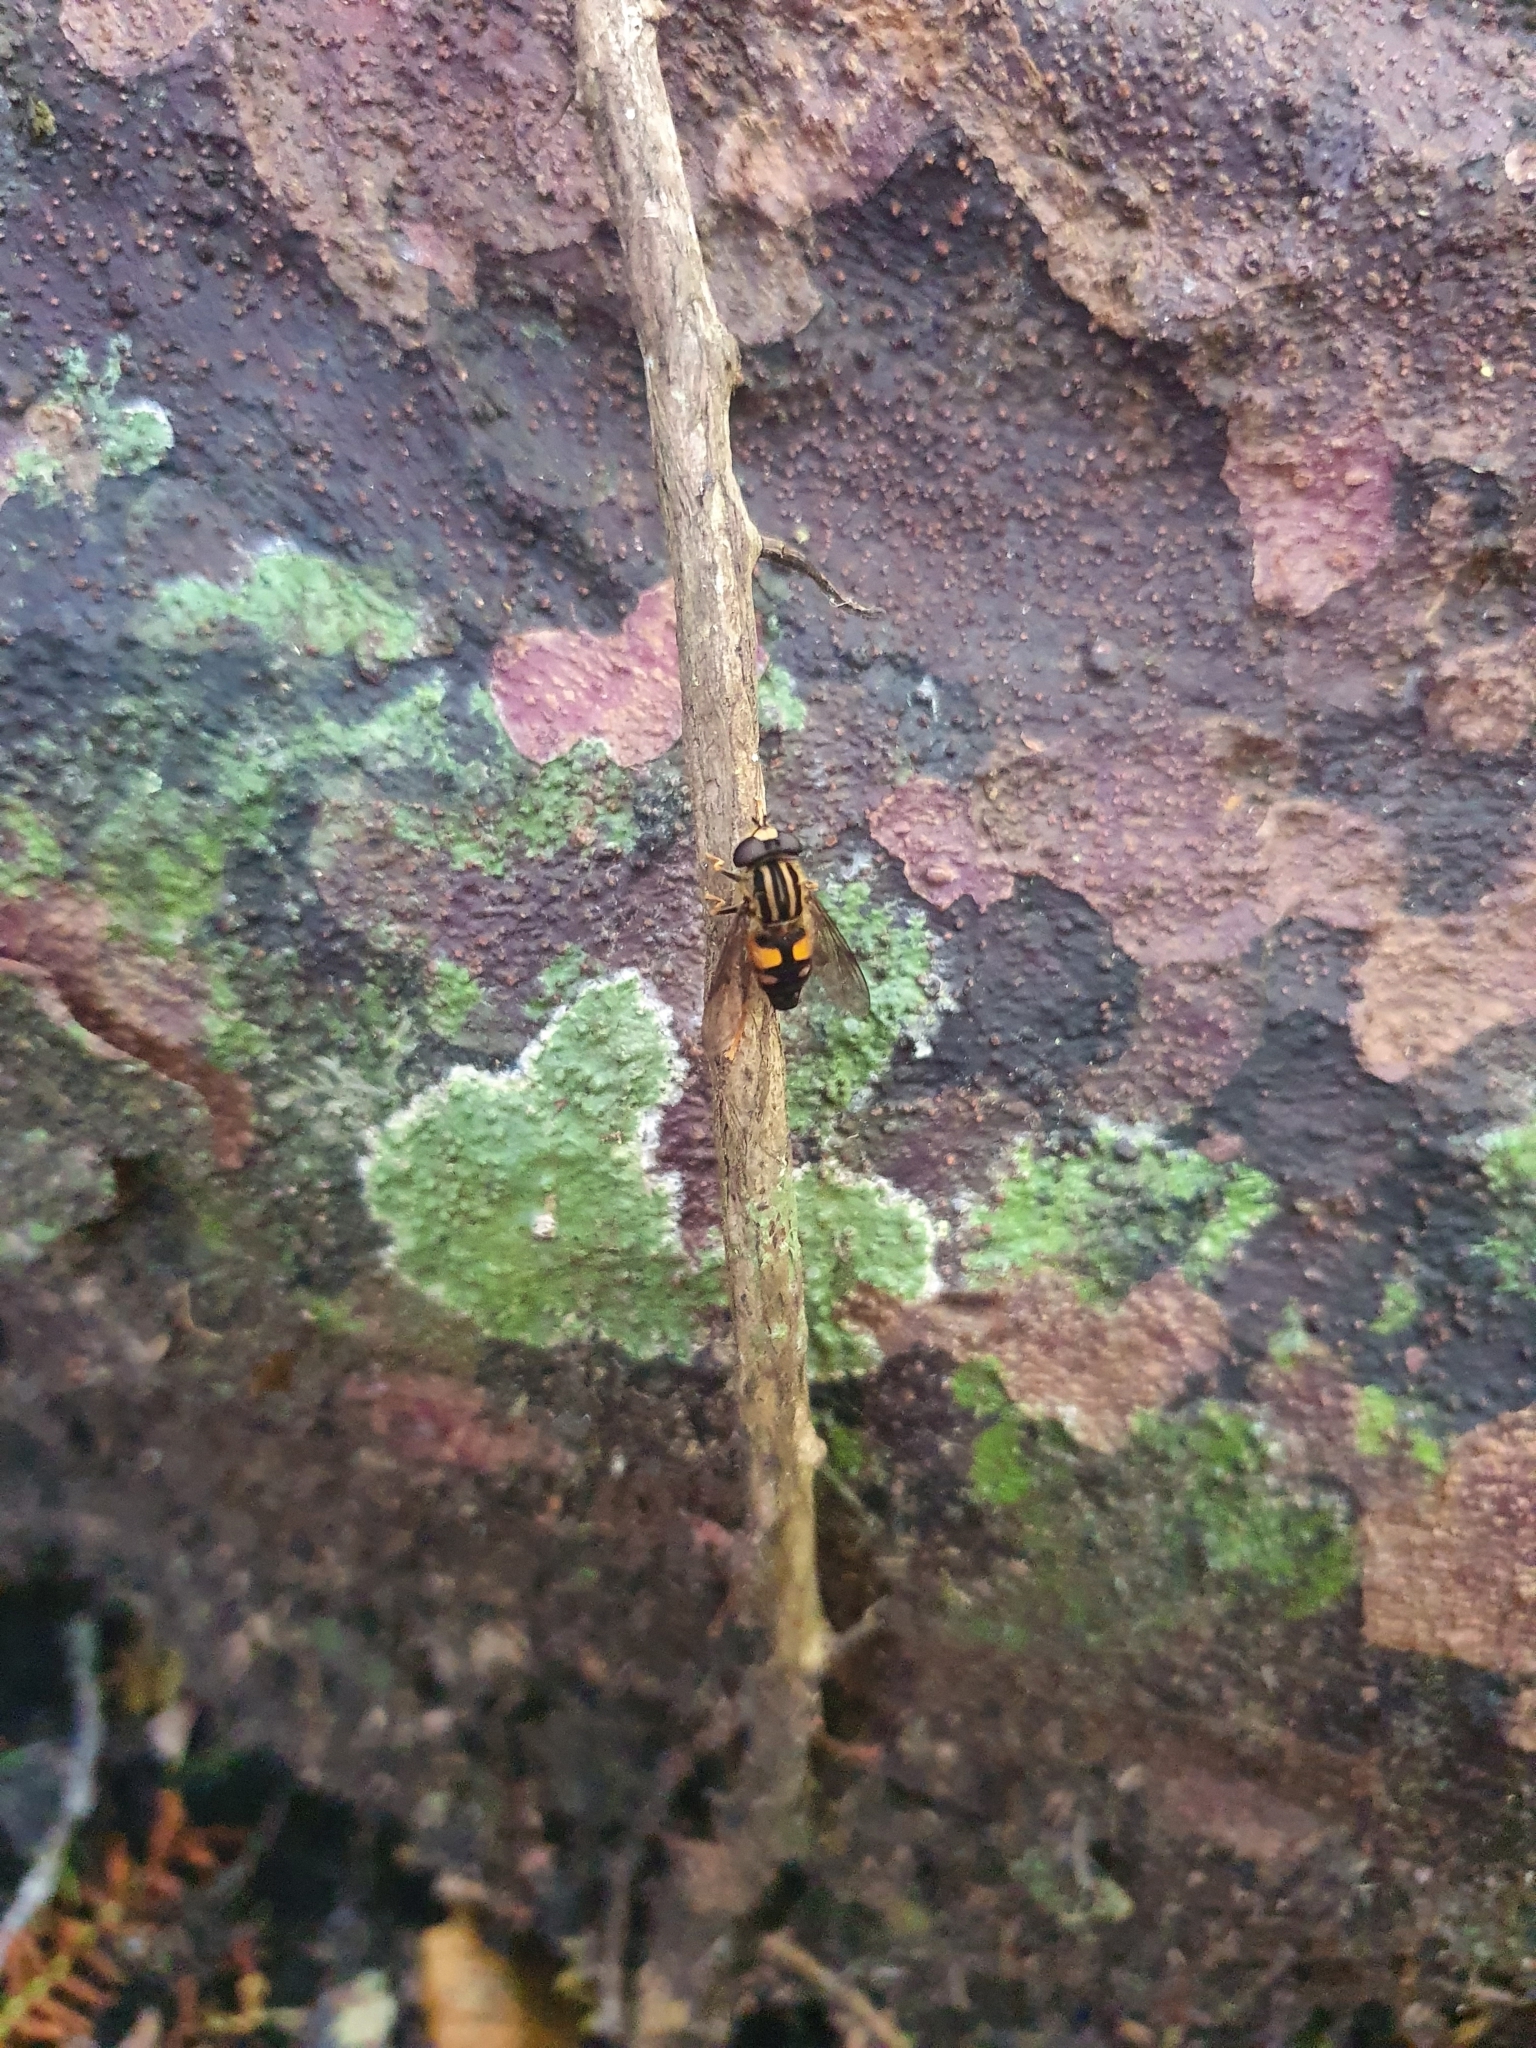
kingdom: Animalia
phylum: Arthropoda
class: Insecta
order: Diptera
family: Syrphidae
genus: Helophilus
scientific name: Helophilus antipodus
